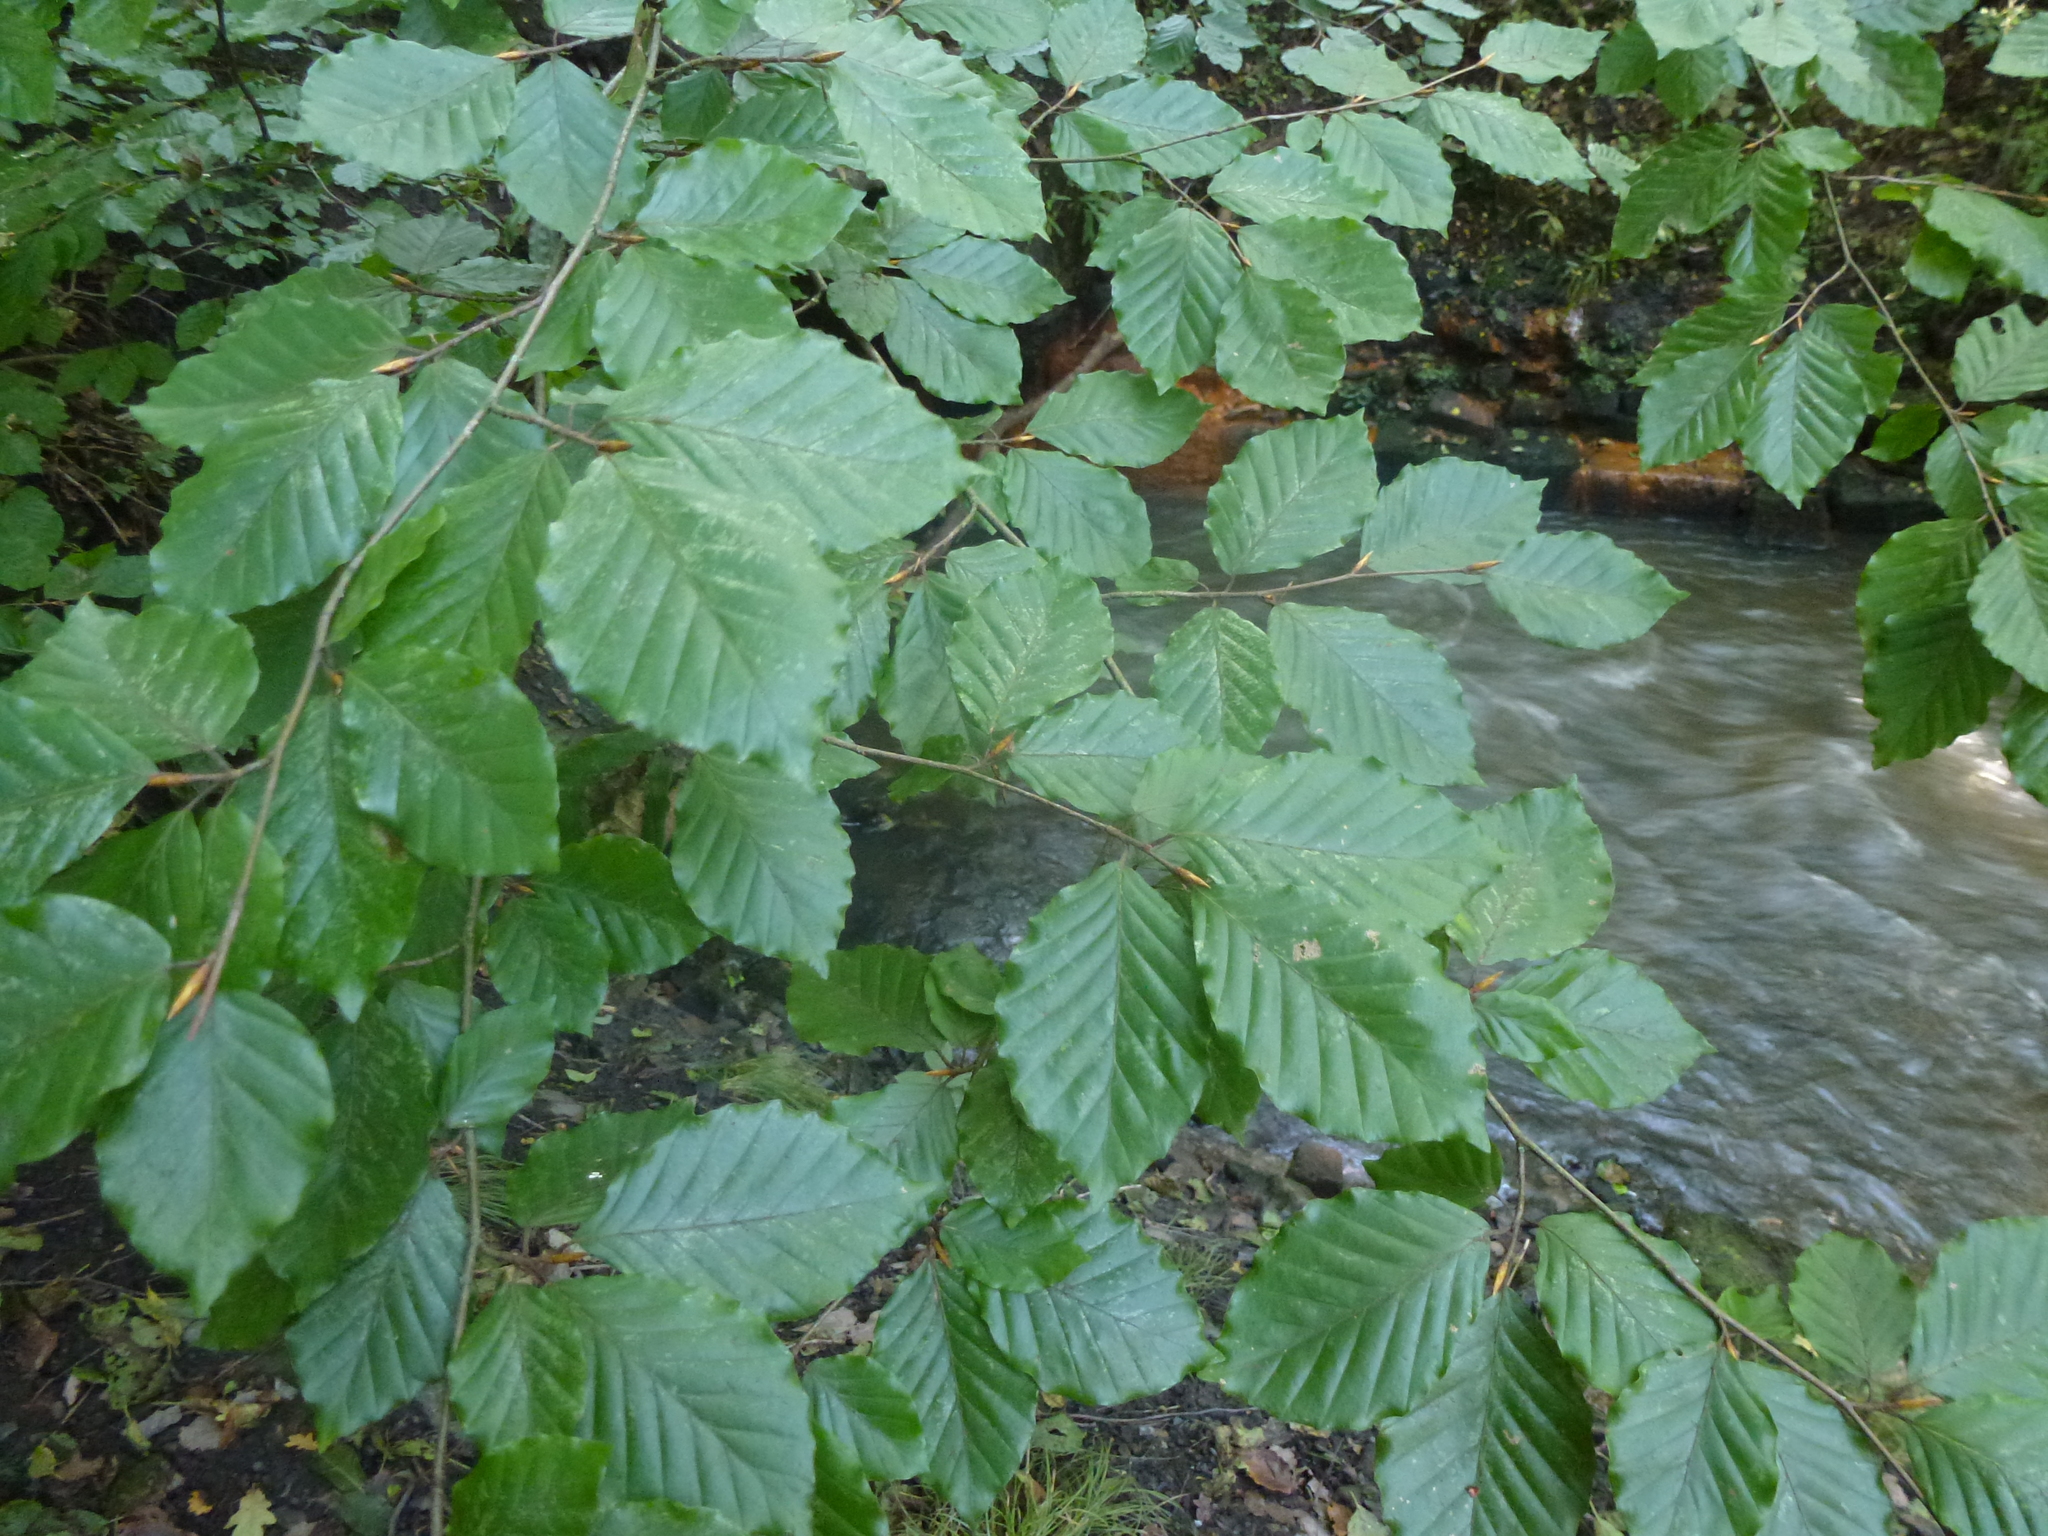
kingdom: Plantae
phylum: Tracheophyta
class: Magnoliopsida
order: Fagales
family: Fagaceae
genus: Fagus
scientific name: Fagus sylvatica
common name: Beech
